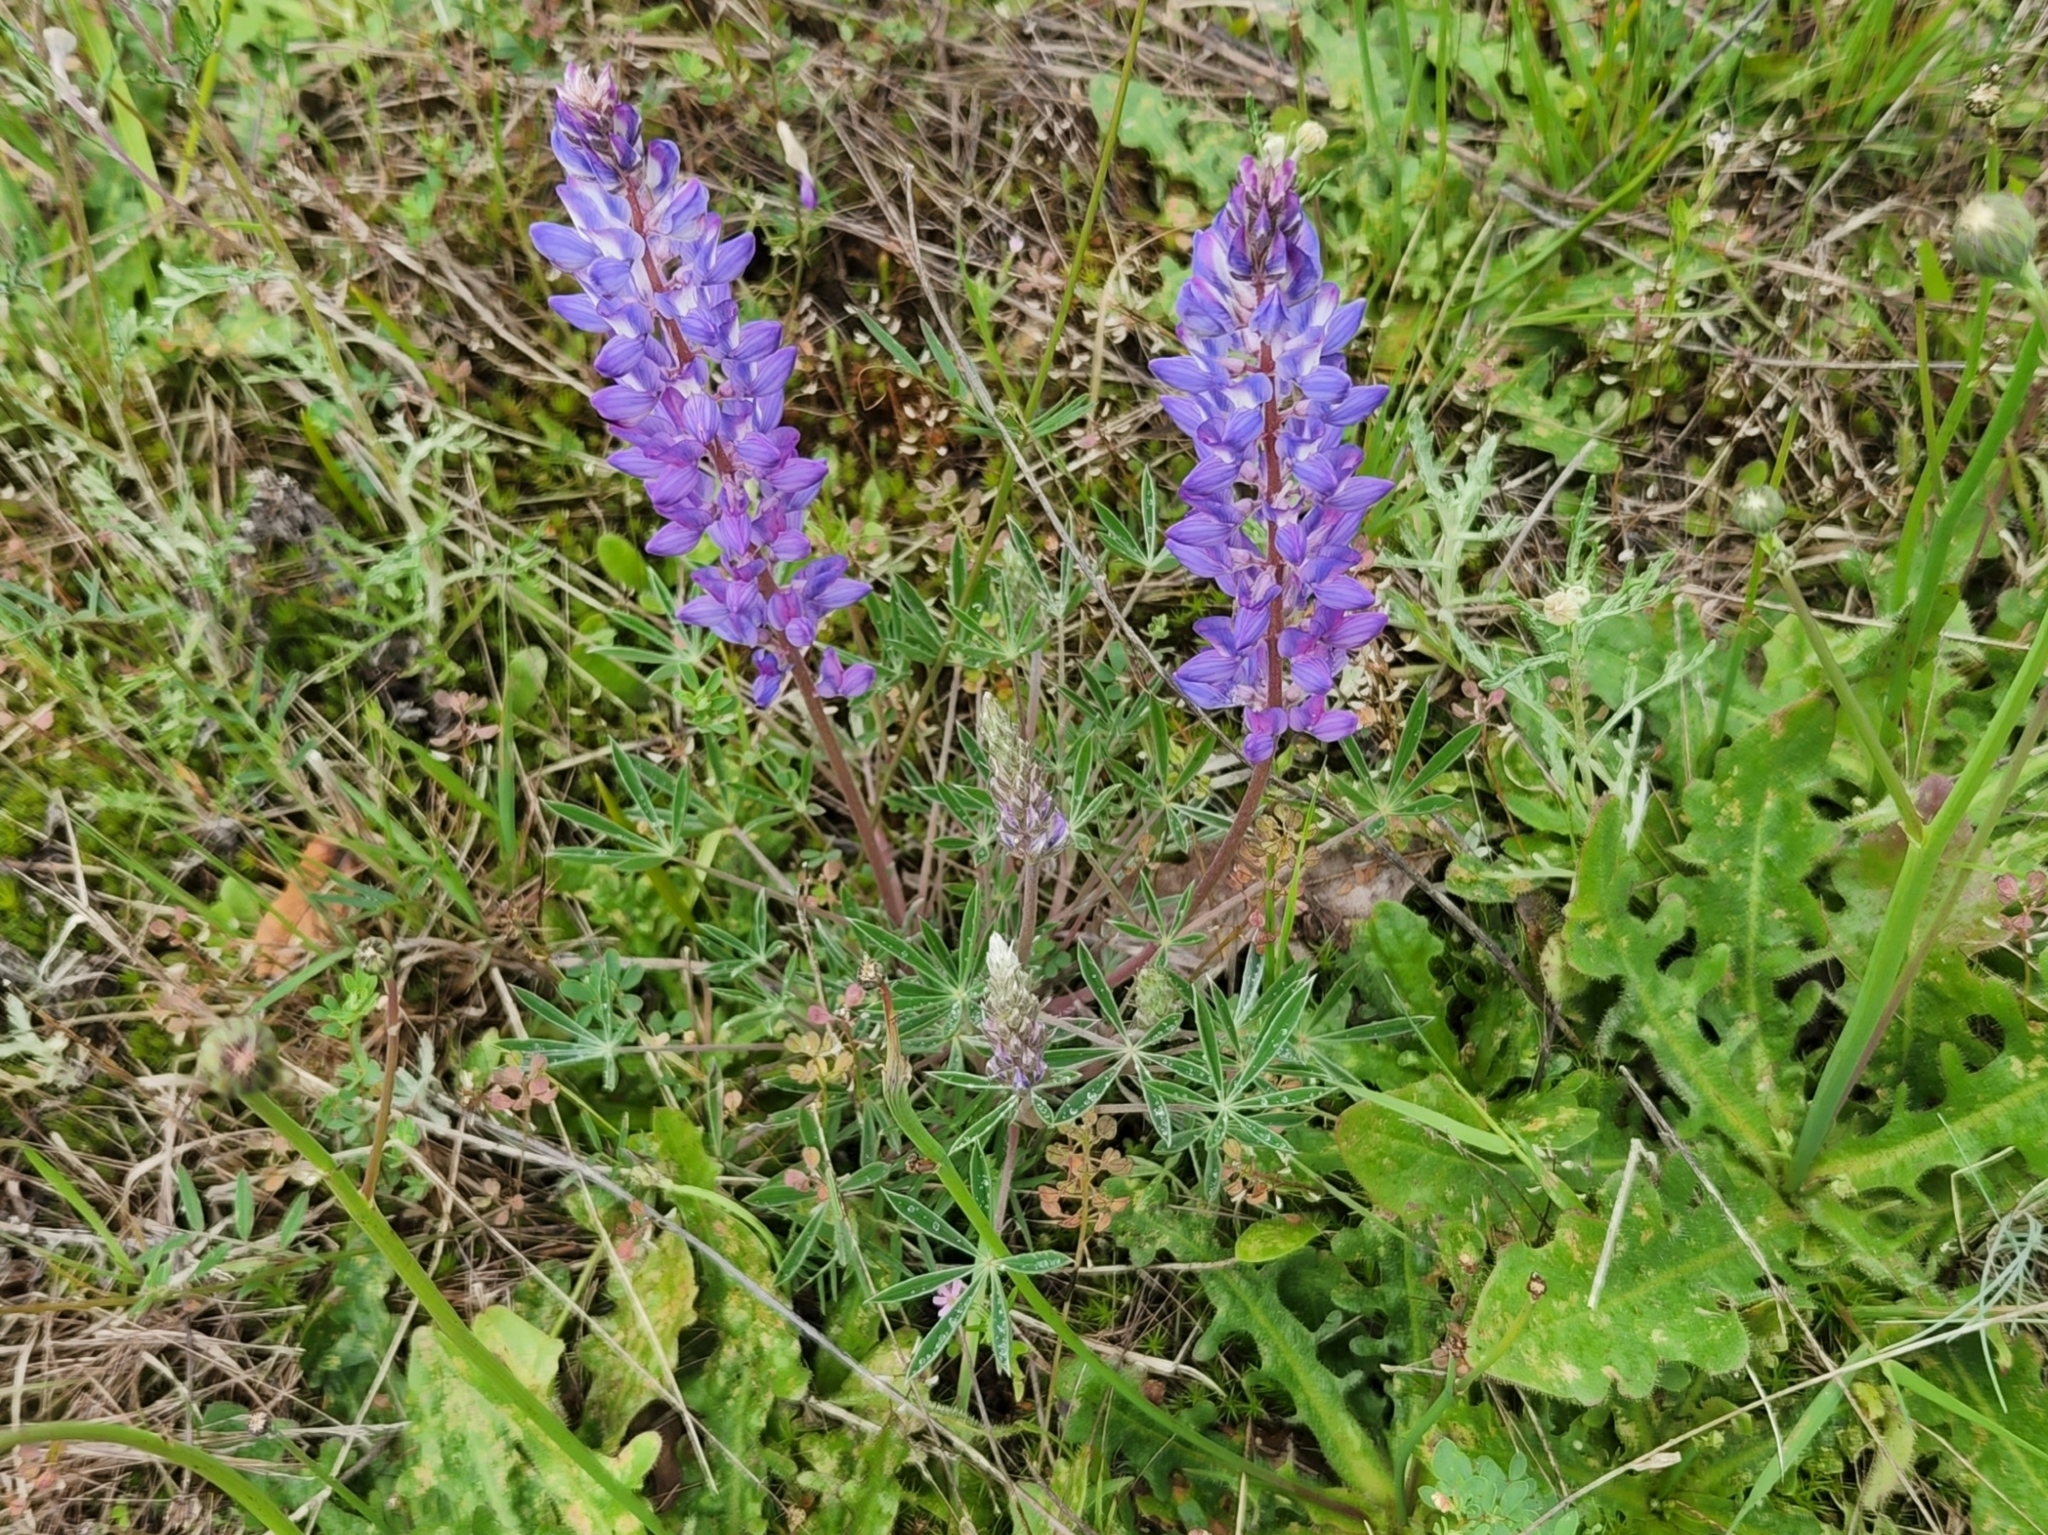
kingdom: Plantae
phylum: Tracheophyta
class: Magnoliopsida
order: Fabales
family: Fabaceae
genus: Lupinus
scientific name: Lupinus lepidus
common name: Prairie lupine
